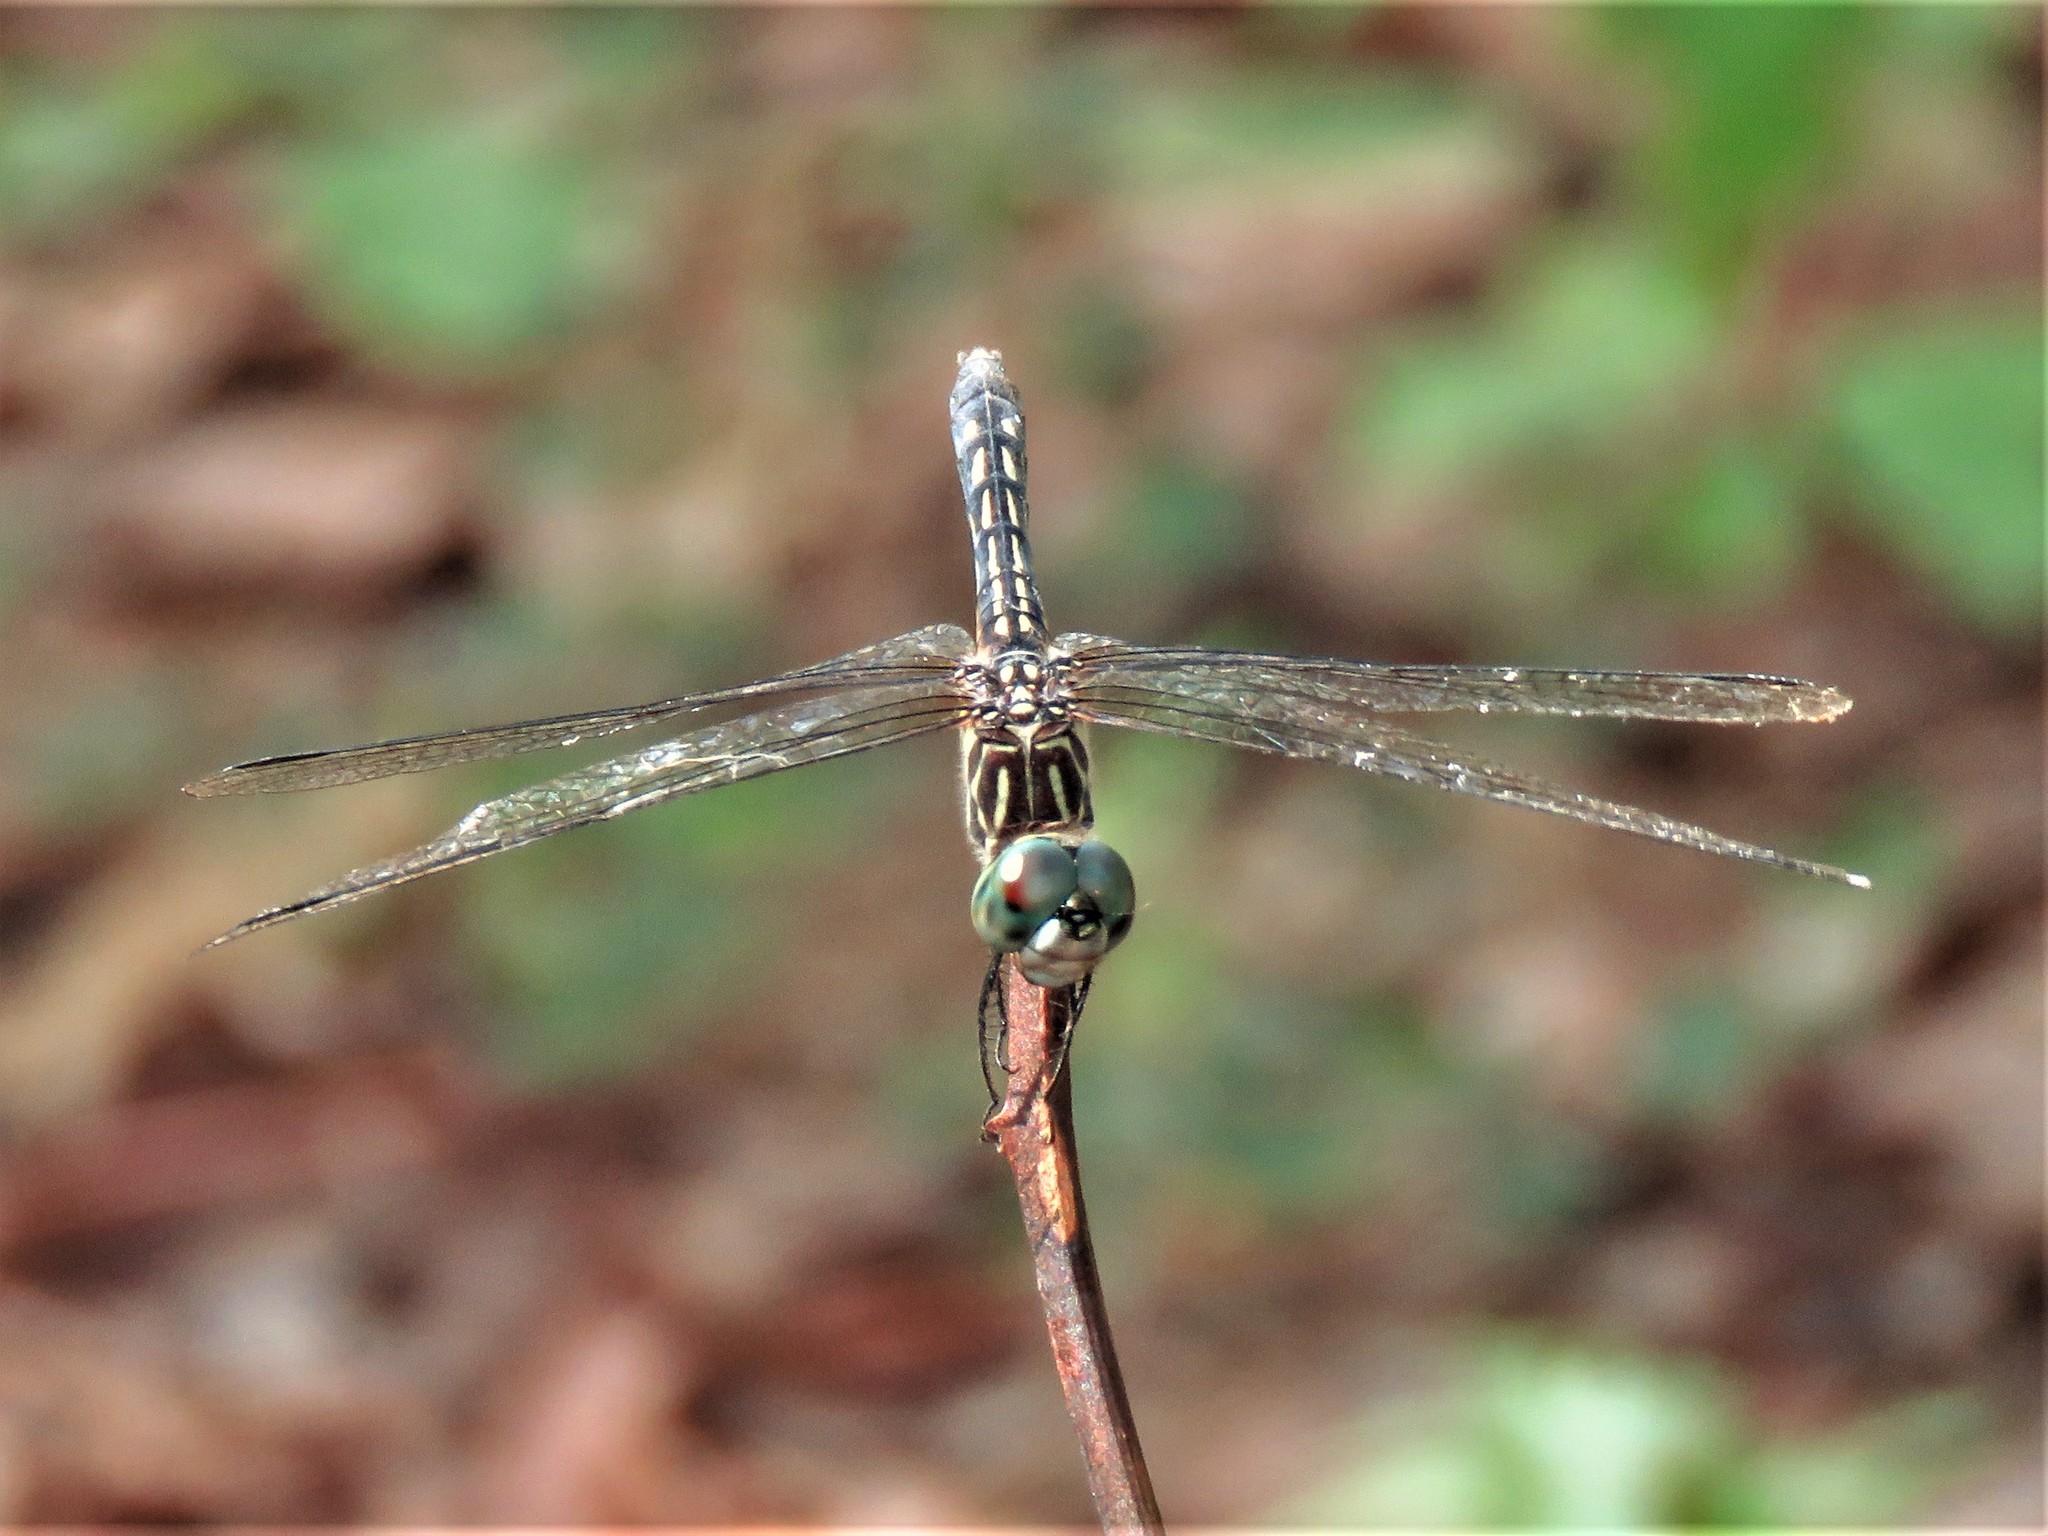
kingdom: Animalia
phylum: Arthropoda
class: Insecta
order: Odonata
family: Libellulidae
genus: Pachydiplax
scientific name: Pachydiplax longipennis
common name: Blue dasher
